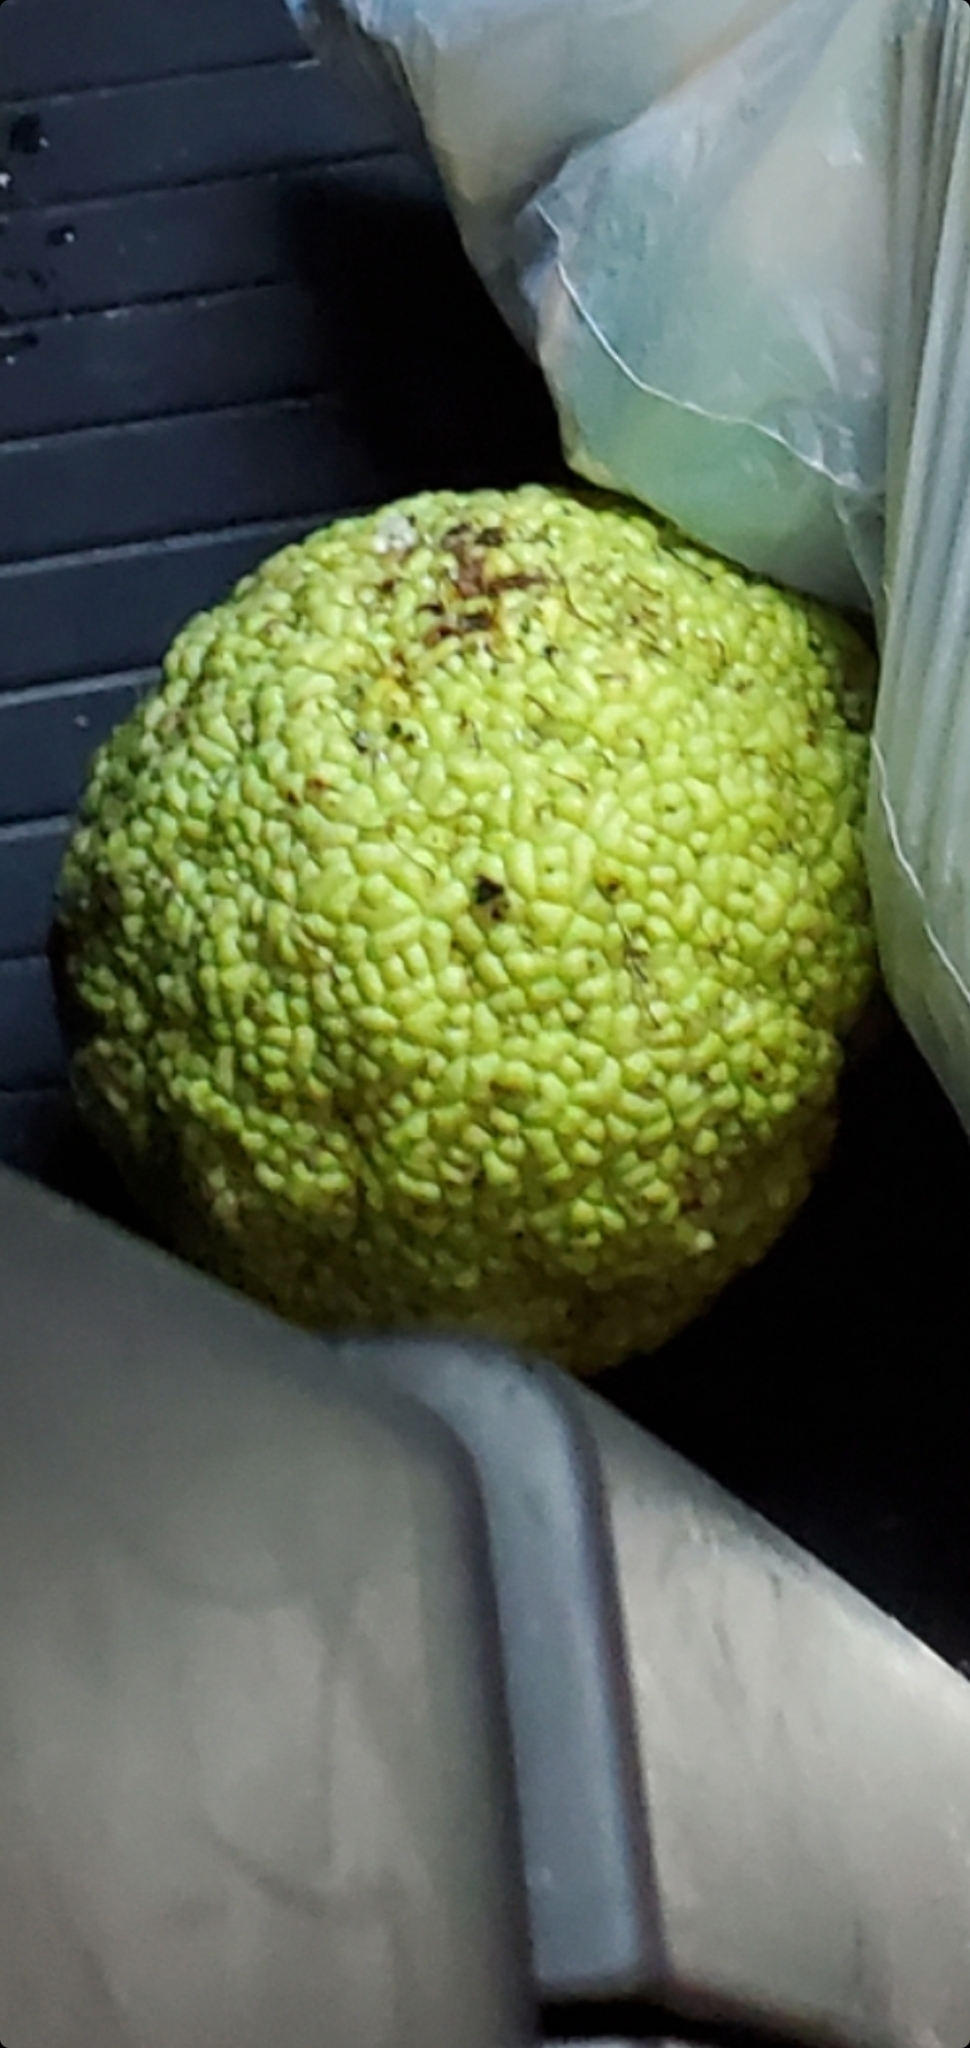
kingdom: Plantae
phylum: Tracheophyta
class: Magnoliopsida
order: Rosales
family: Moraceae
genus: Maclura
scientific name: Maclura pomifera
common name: Osage-orange
